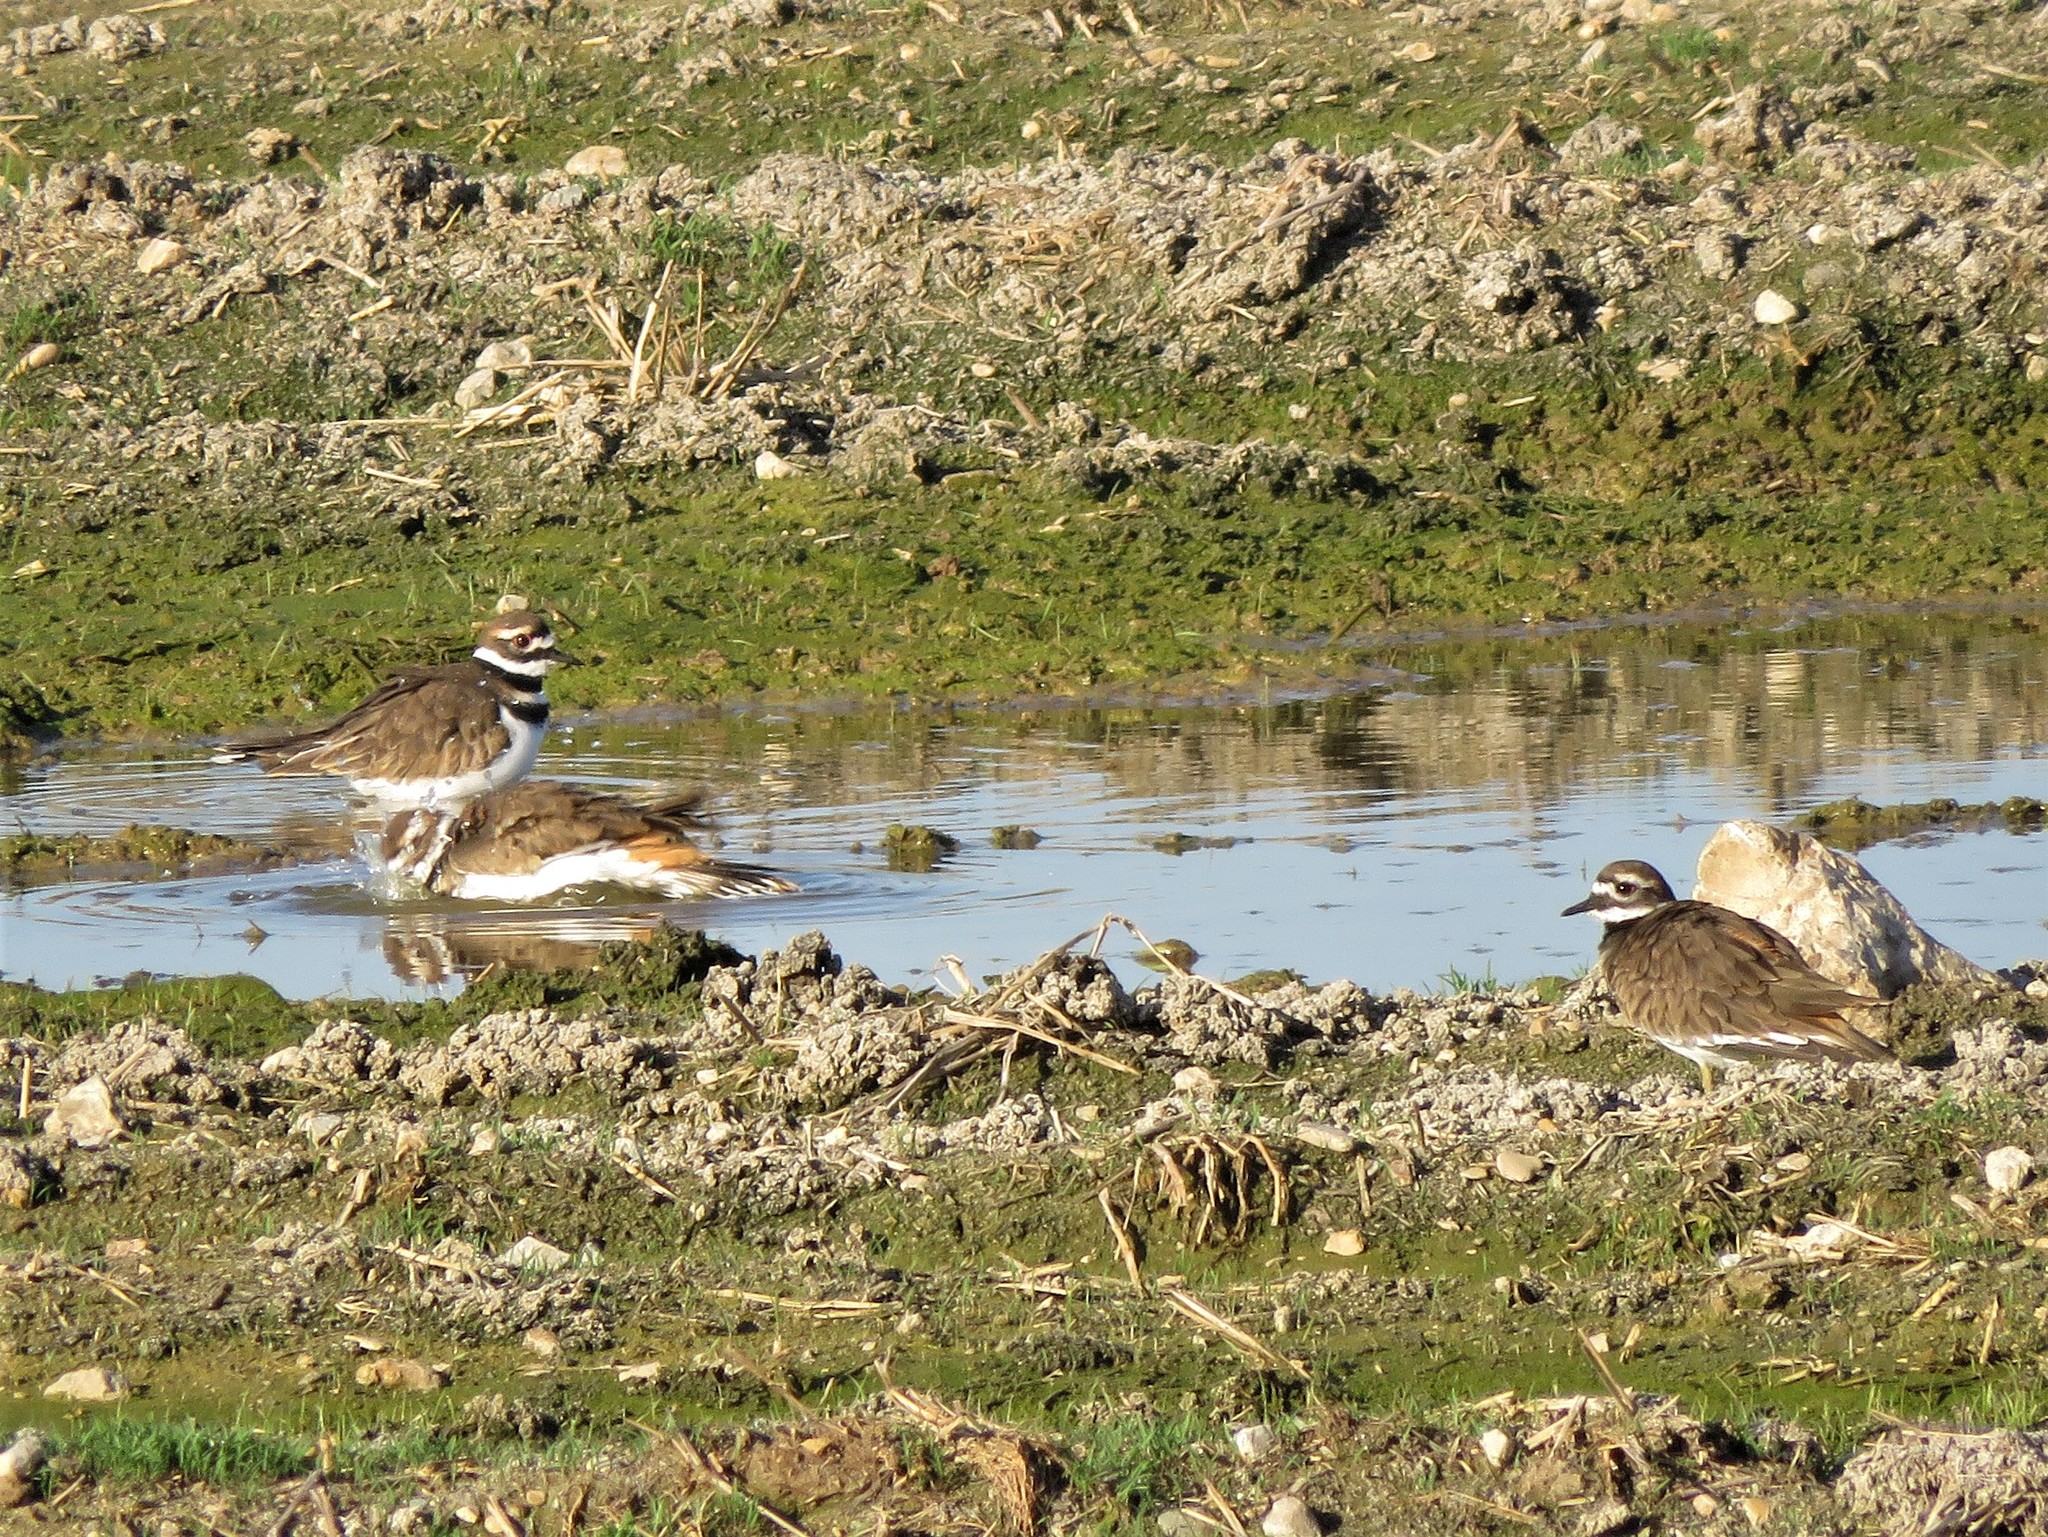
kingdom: Animalia
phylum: Chordata
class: Aves
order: Charadriiformes
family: Charadriidae
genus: Charadrius
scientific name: Charadrius vociferus
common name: Killdeer
